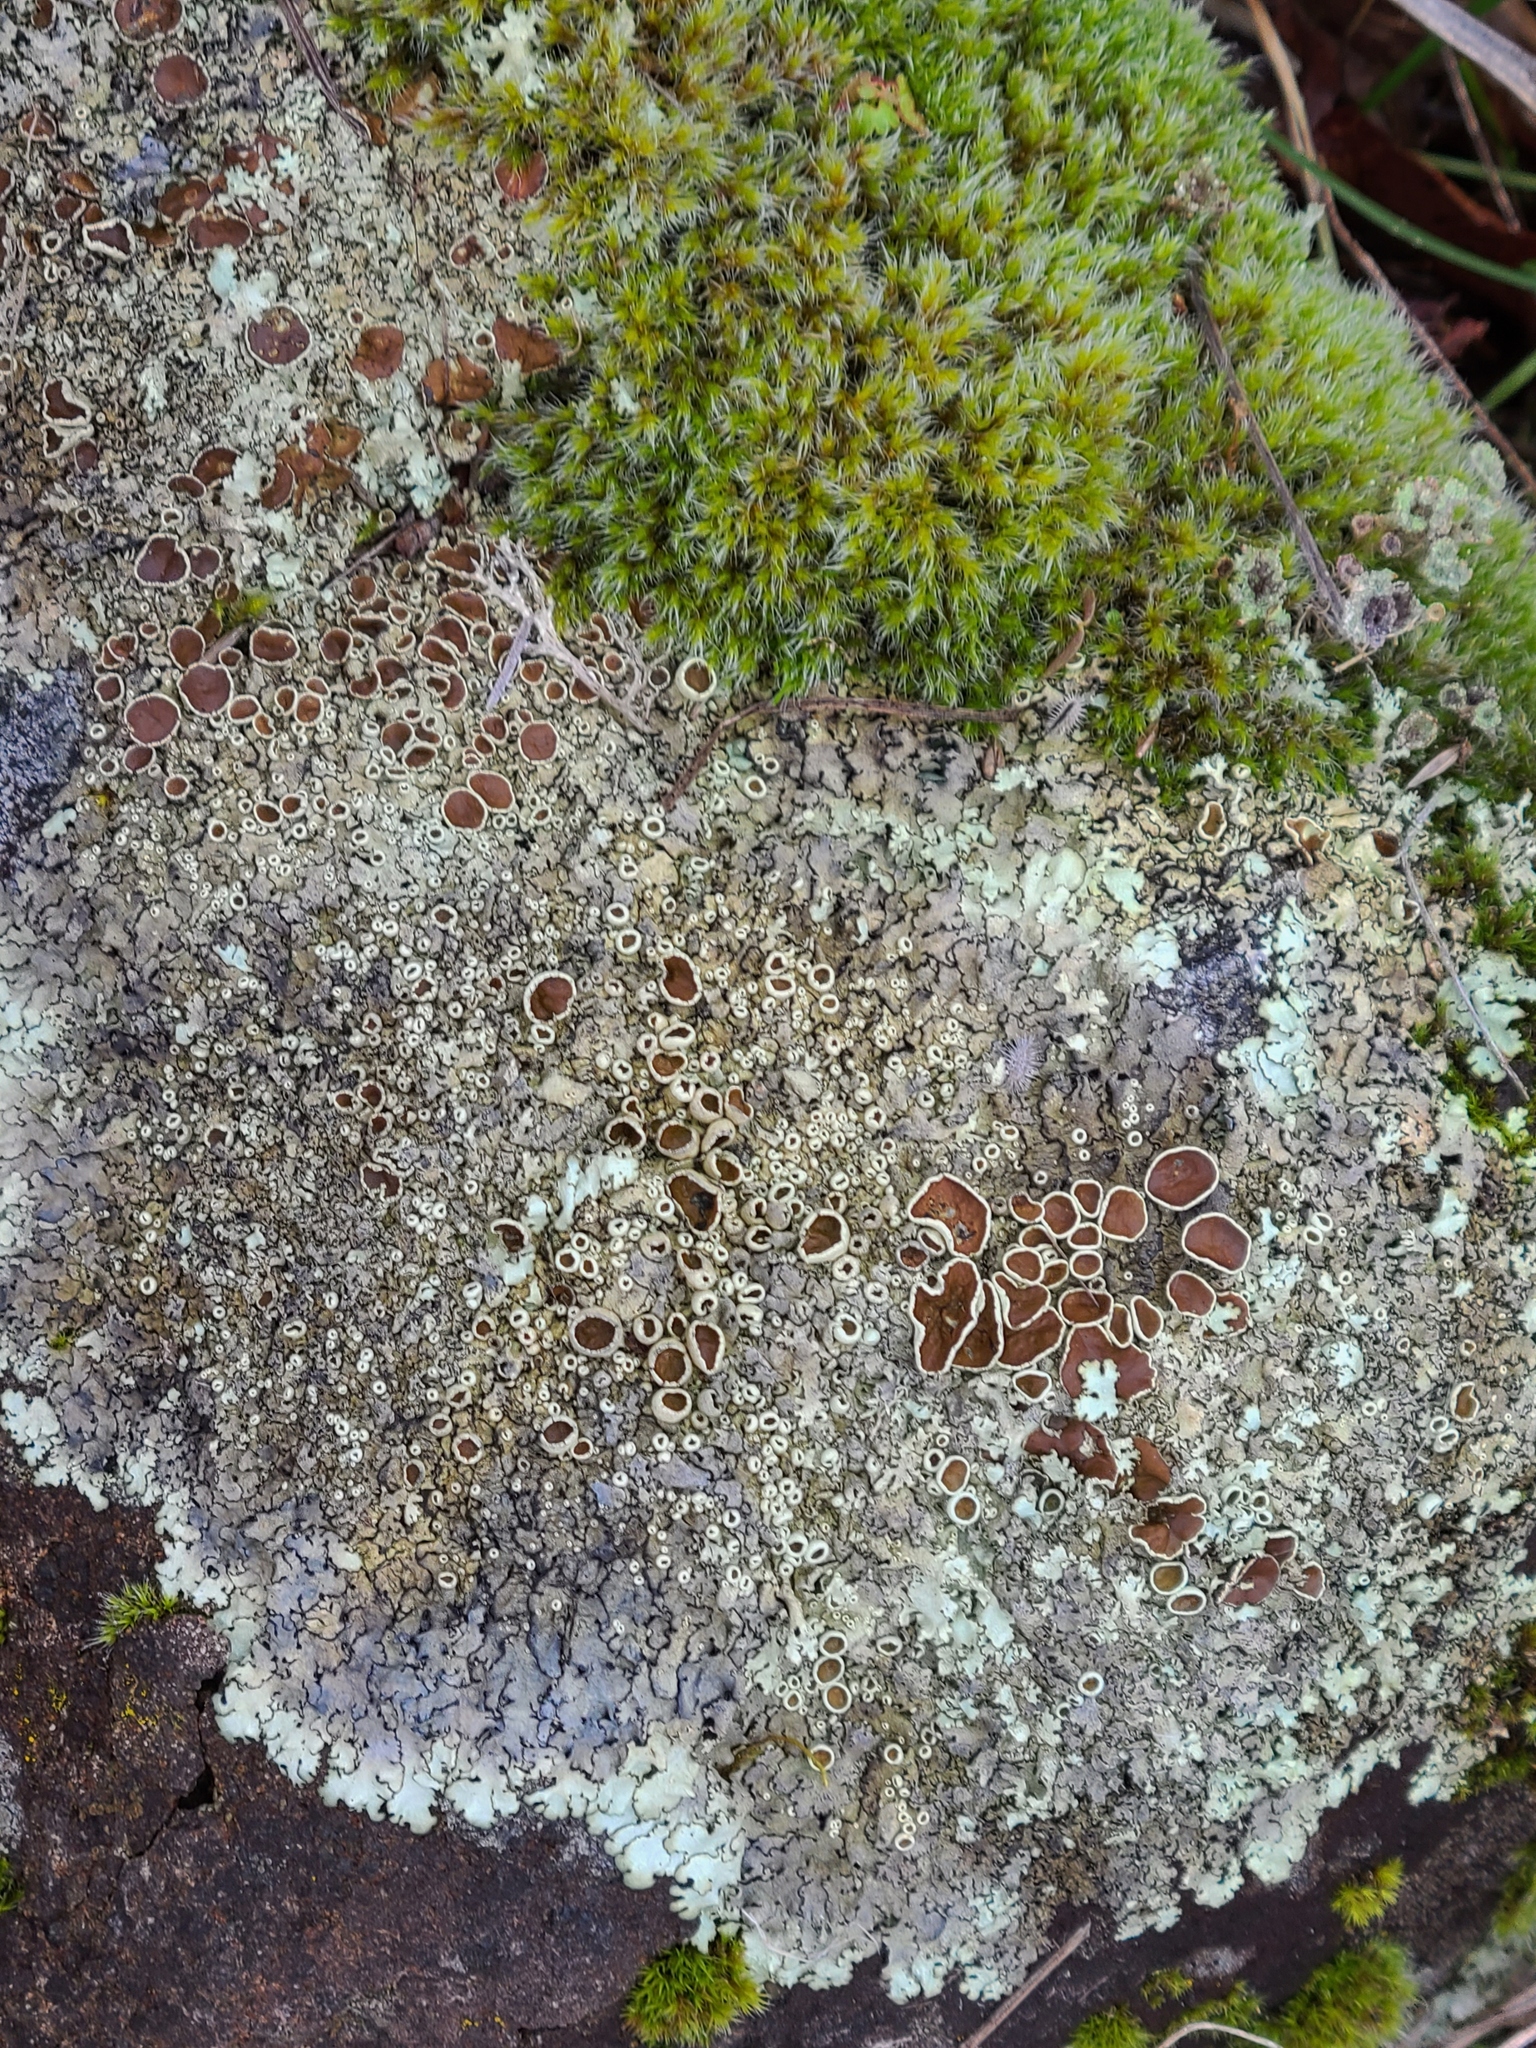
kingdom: Fungi
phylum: Ascomycota
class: Lecanoromycetes
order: Lecanorales
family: Parmeliaceae
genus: Xanthoparmelia
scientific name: Xanthoparmelia cumberlandia
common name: Cumberland rock shield
